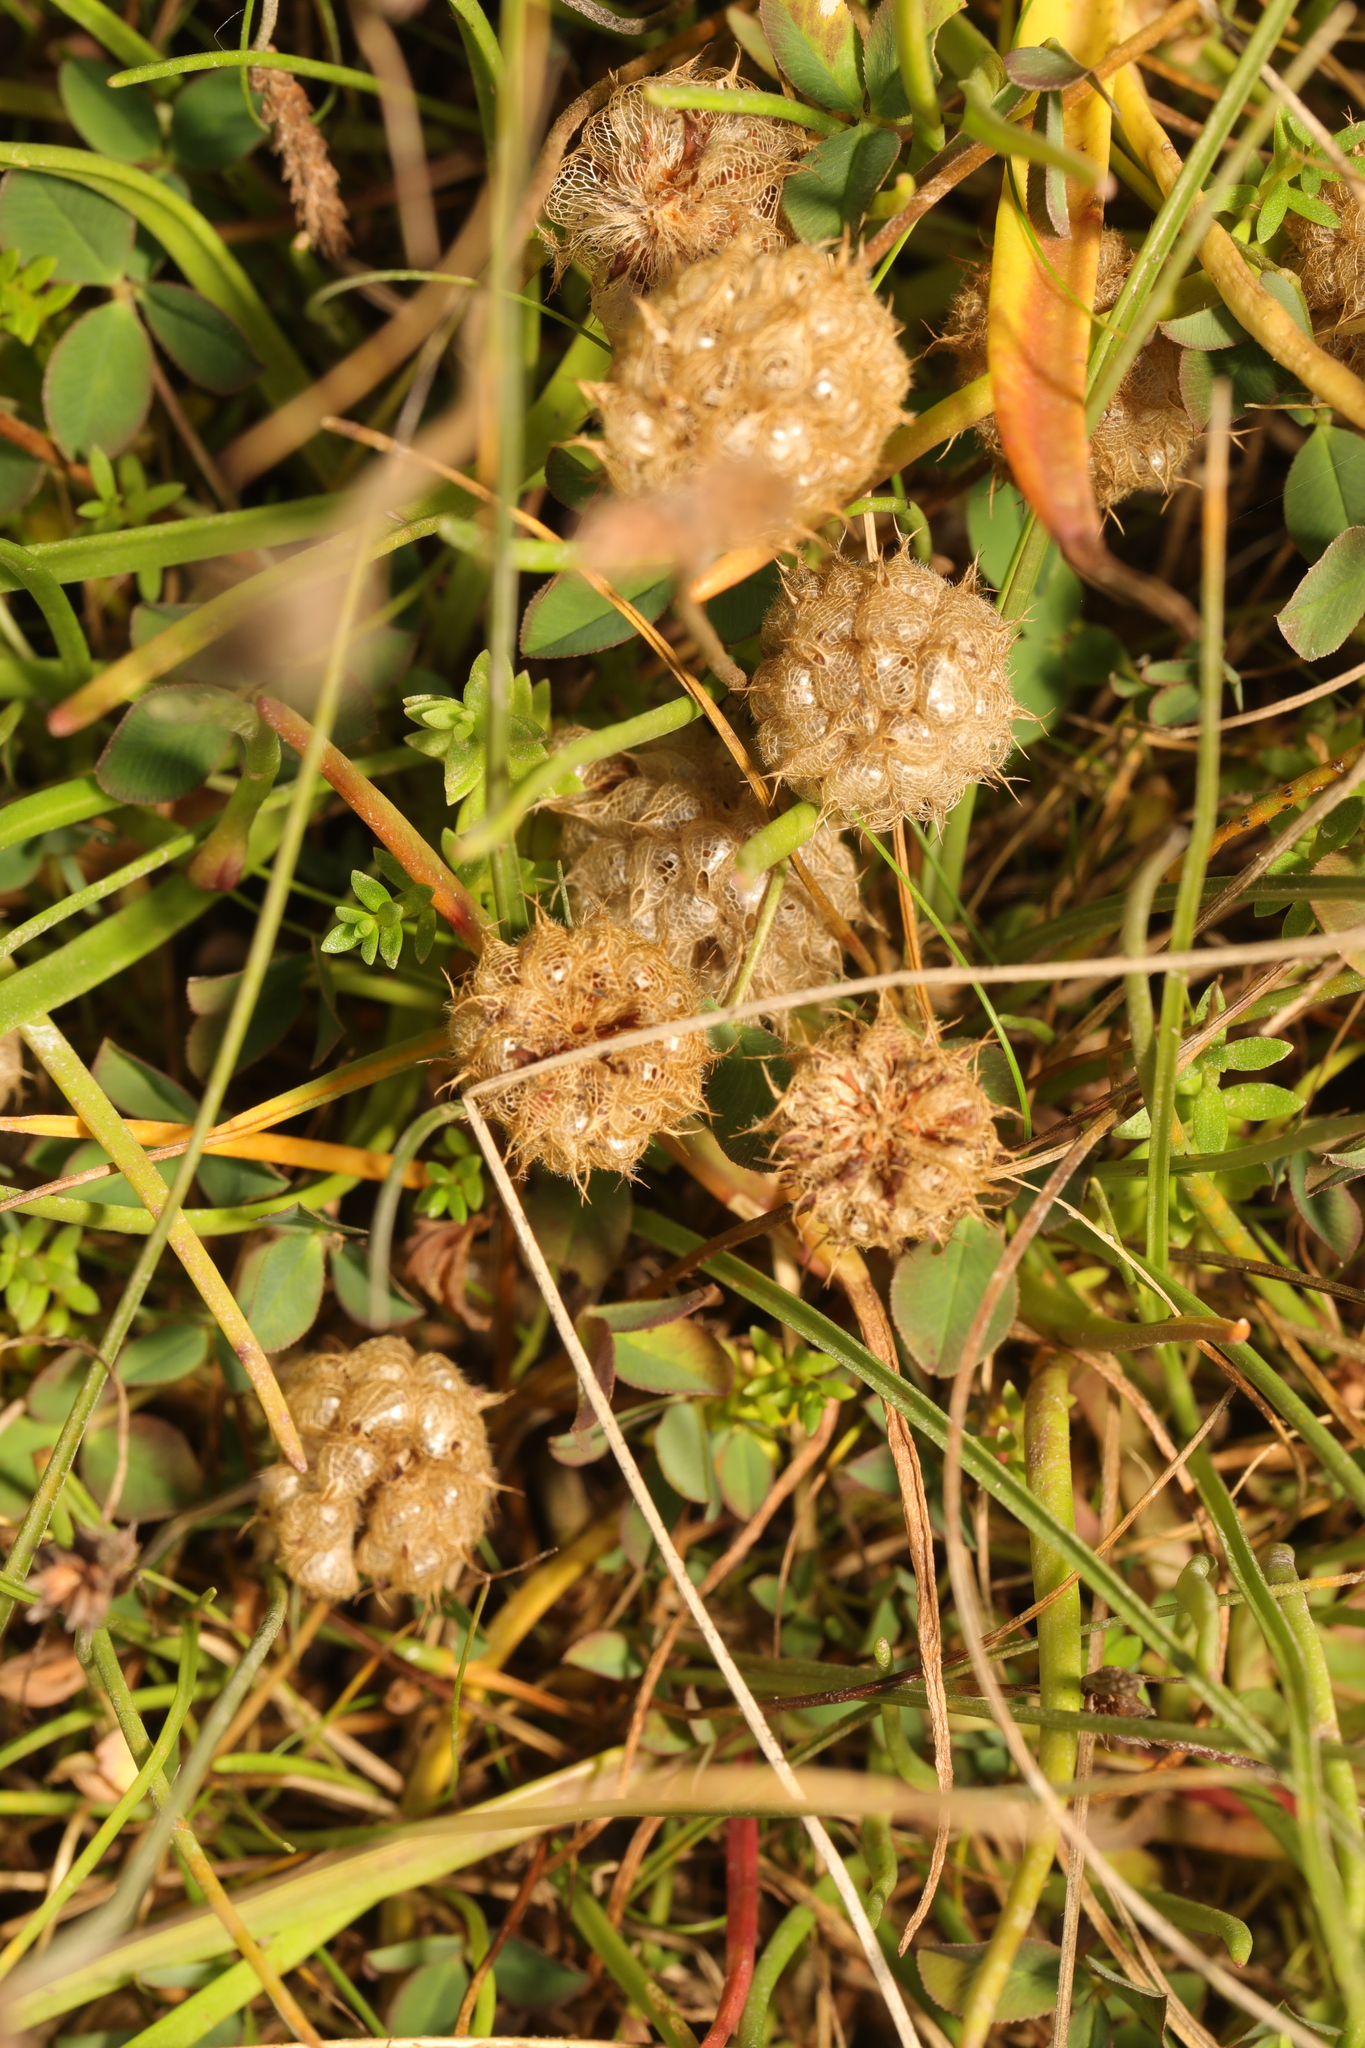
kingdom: Plantae
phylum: Tracheophyta
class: Magnoliopsida
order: Fabales
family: Fabaceae
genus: Trifolium
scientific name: Trifolium fragiferum
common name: Strawberry clover
